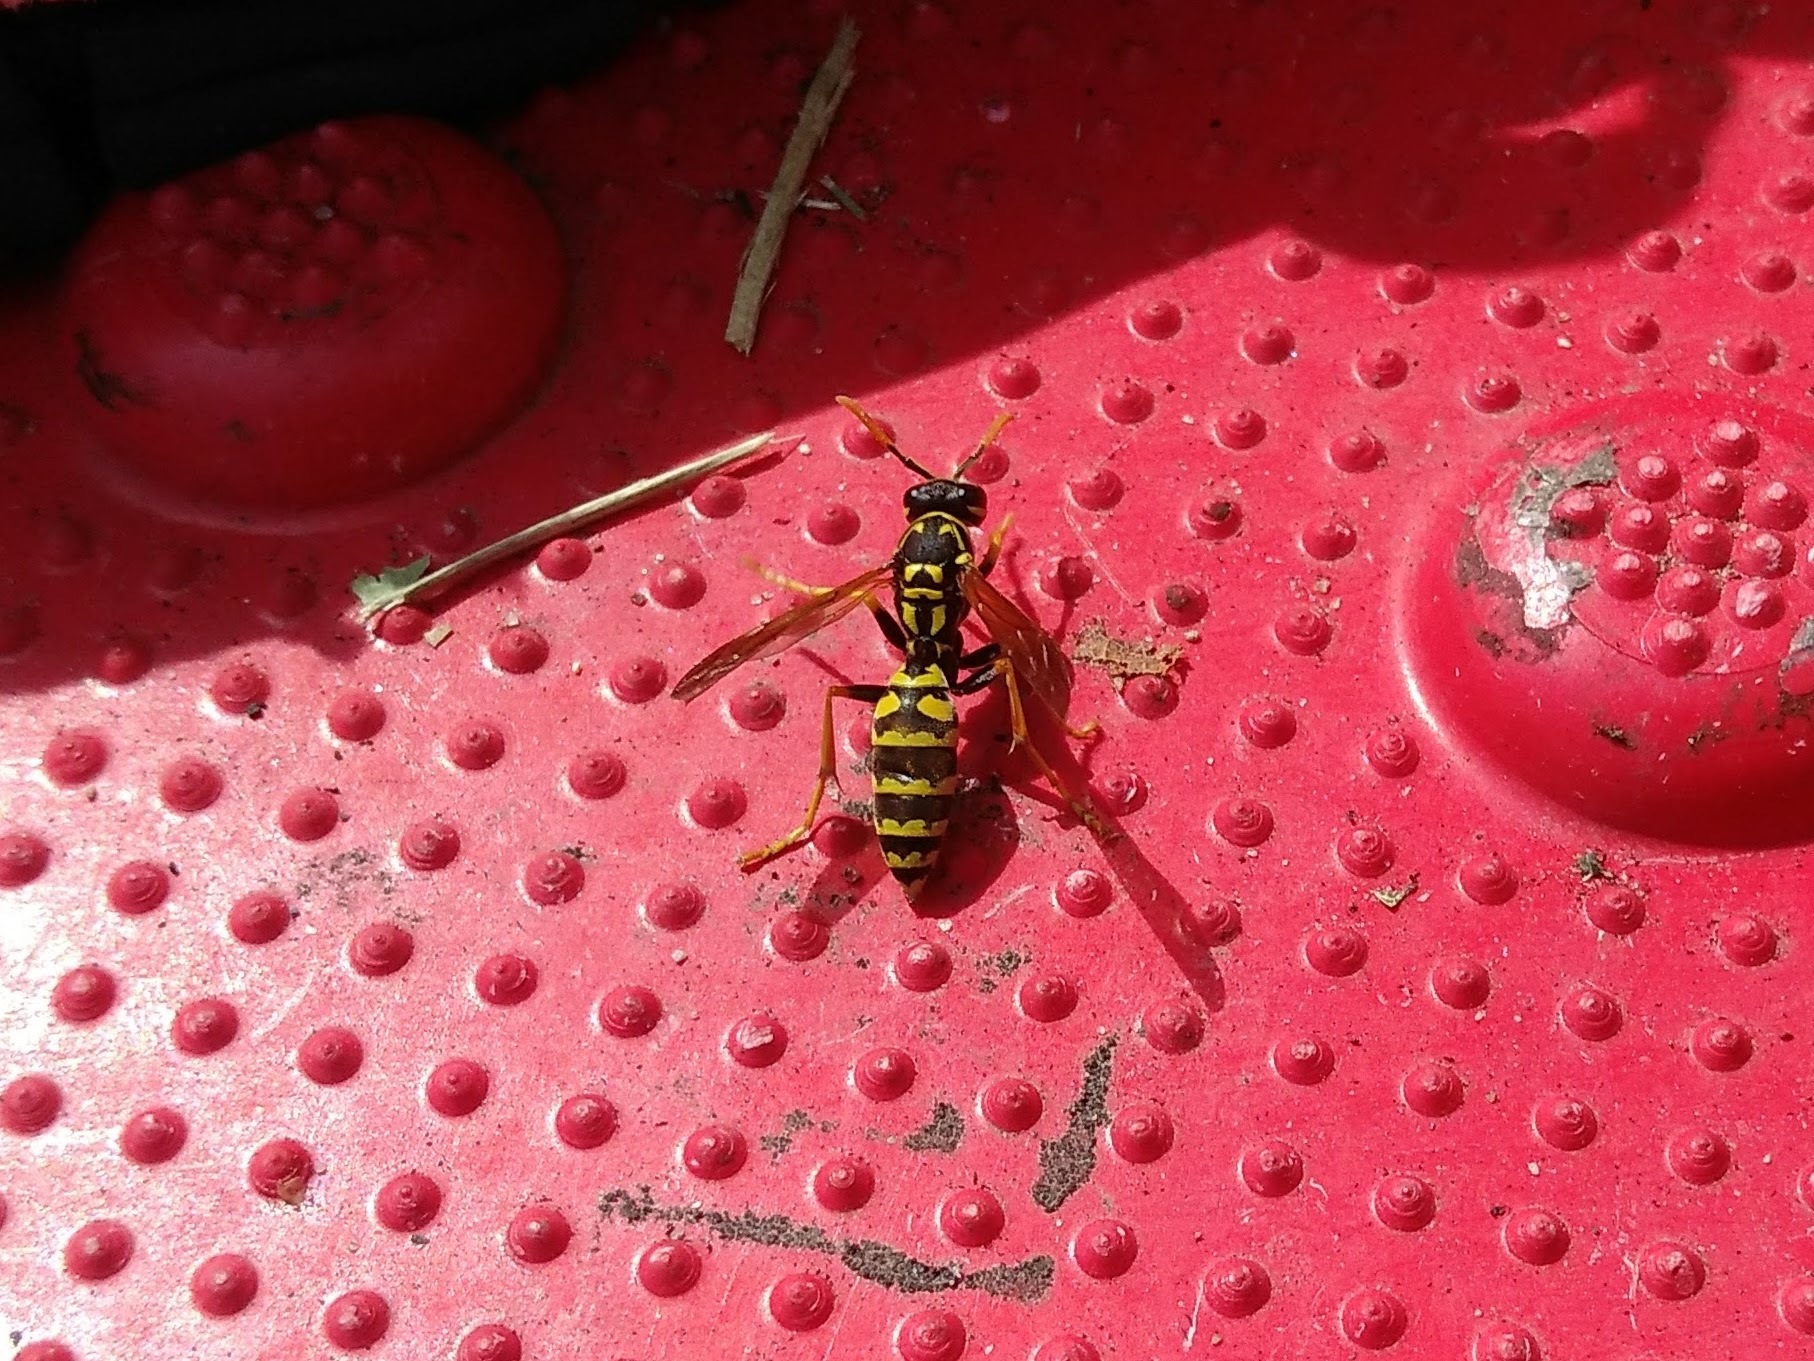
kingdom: Animalia
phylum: Arthropoda
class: Insecta
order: Hymenoptera
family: Eumenidae
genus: Polistes
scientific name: Polistes dominula
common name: Paper wasp
